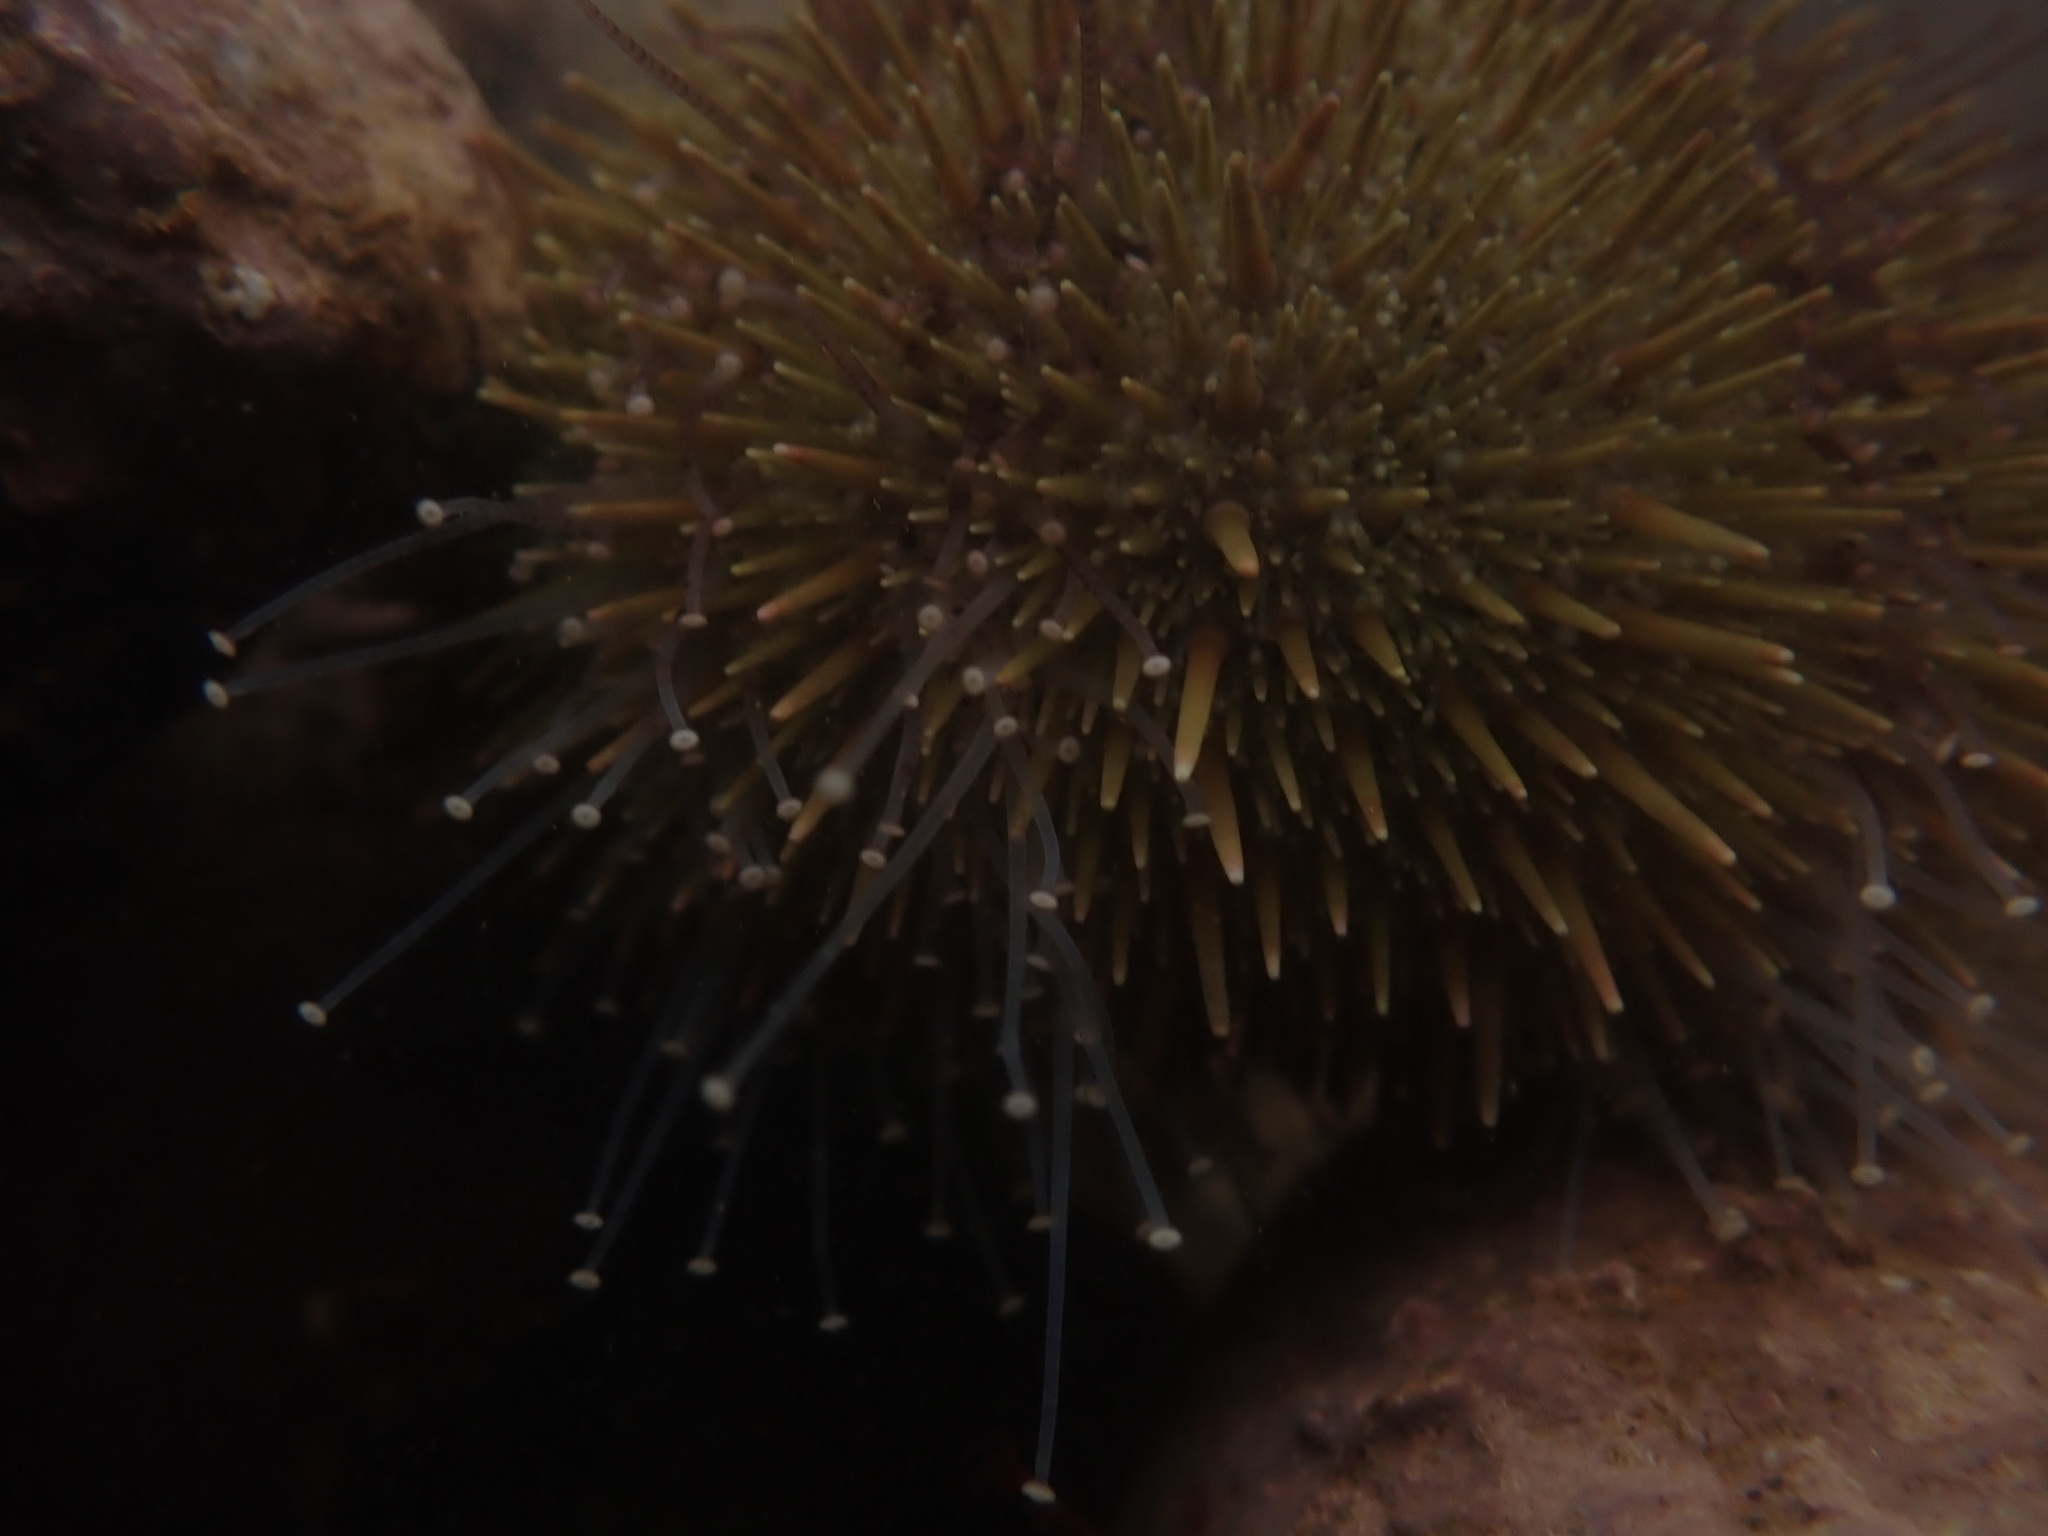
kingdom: Animalia
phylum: Echinodermata
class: Echinoidea
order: Camarodonta
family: Strongylocentrotidae
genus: Strongylocentrotus
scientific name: Strongylocentrotus droebachiensis
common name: Northern sea urchin
